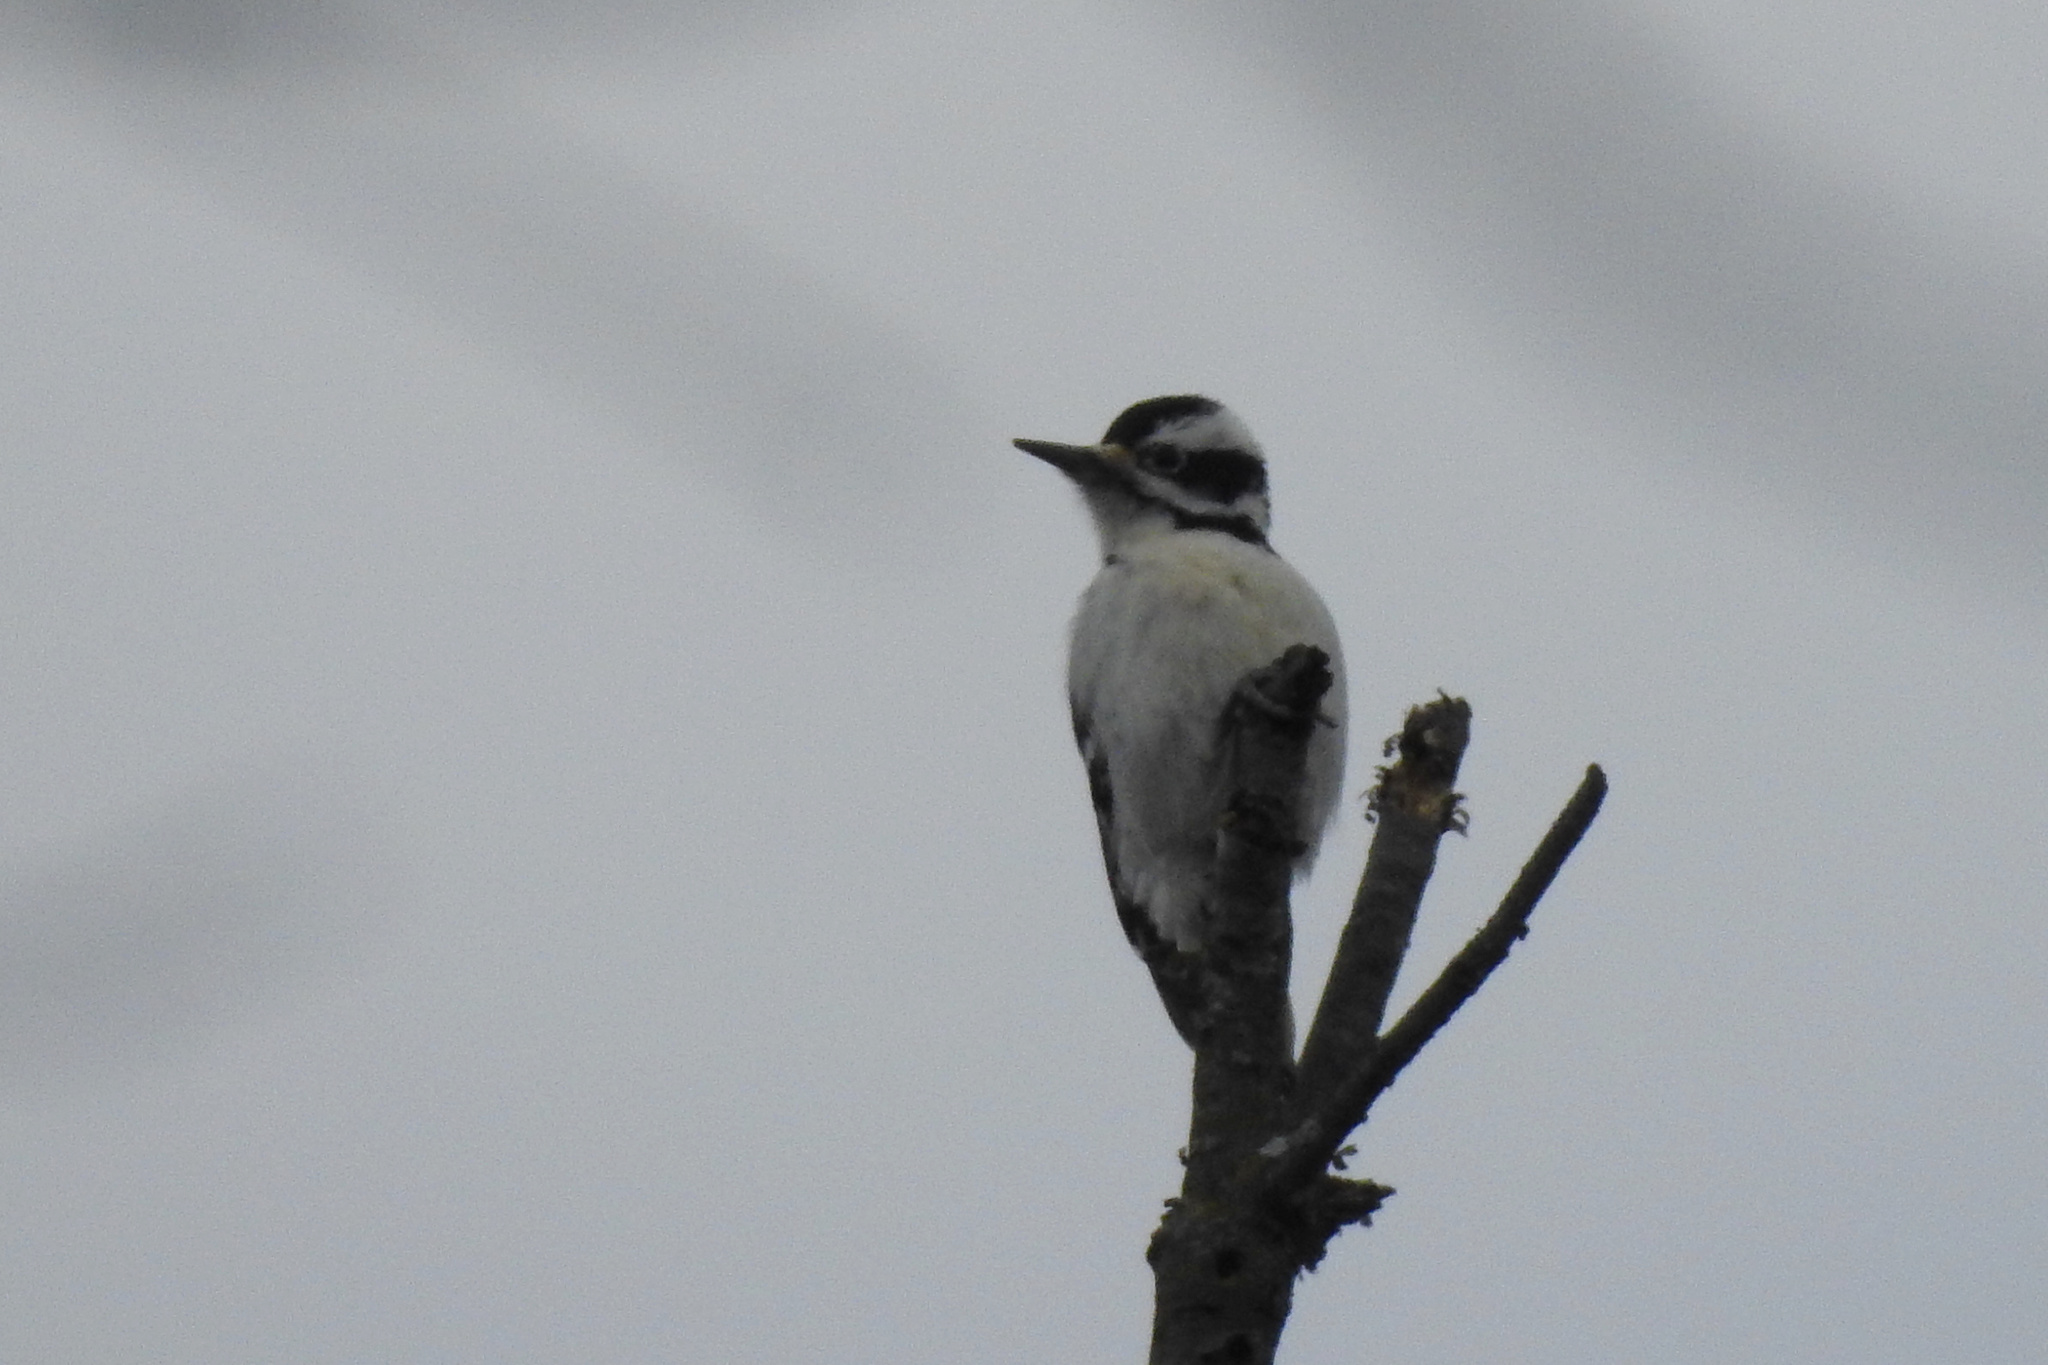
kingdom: Animalia
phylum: Chordata
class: Aves
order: Piciformes
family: Picidae
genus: Leuconotopicus
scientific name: Leuconotopicus villosus
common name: Hairy woodpecker
